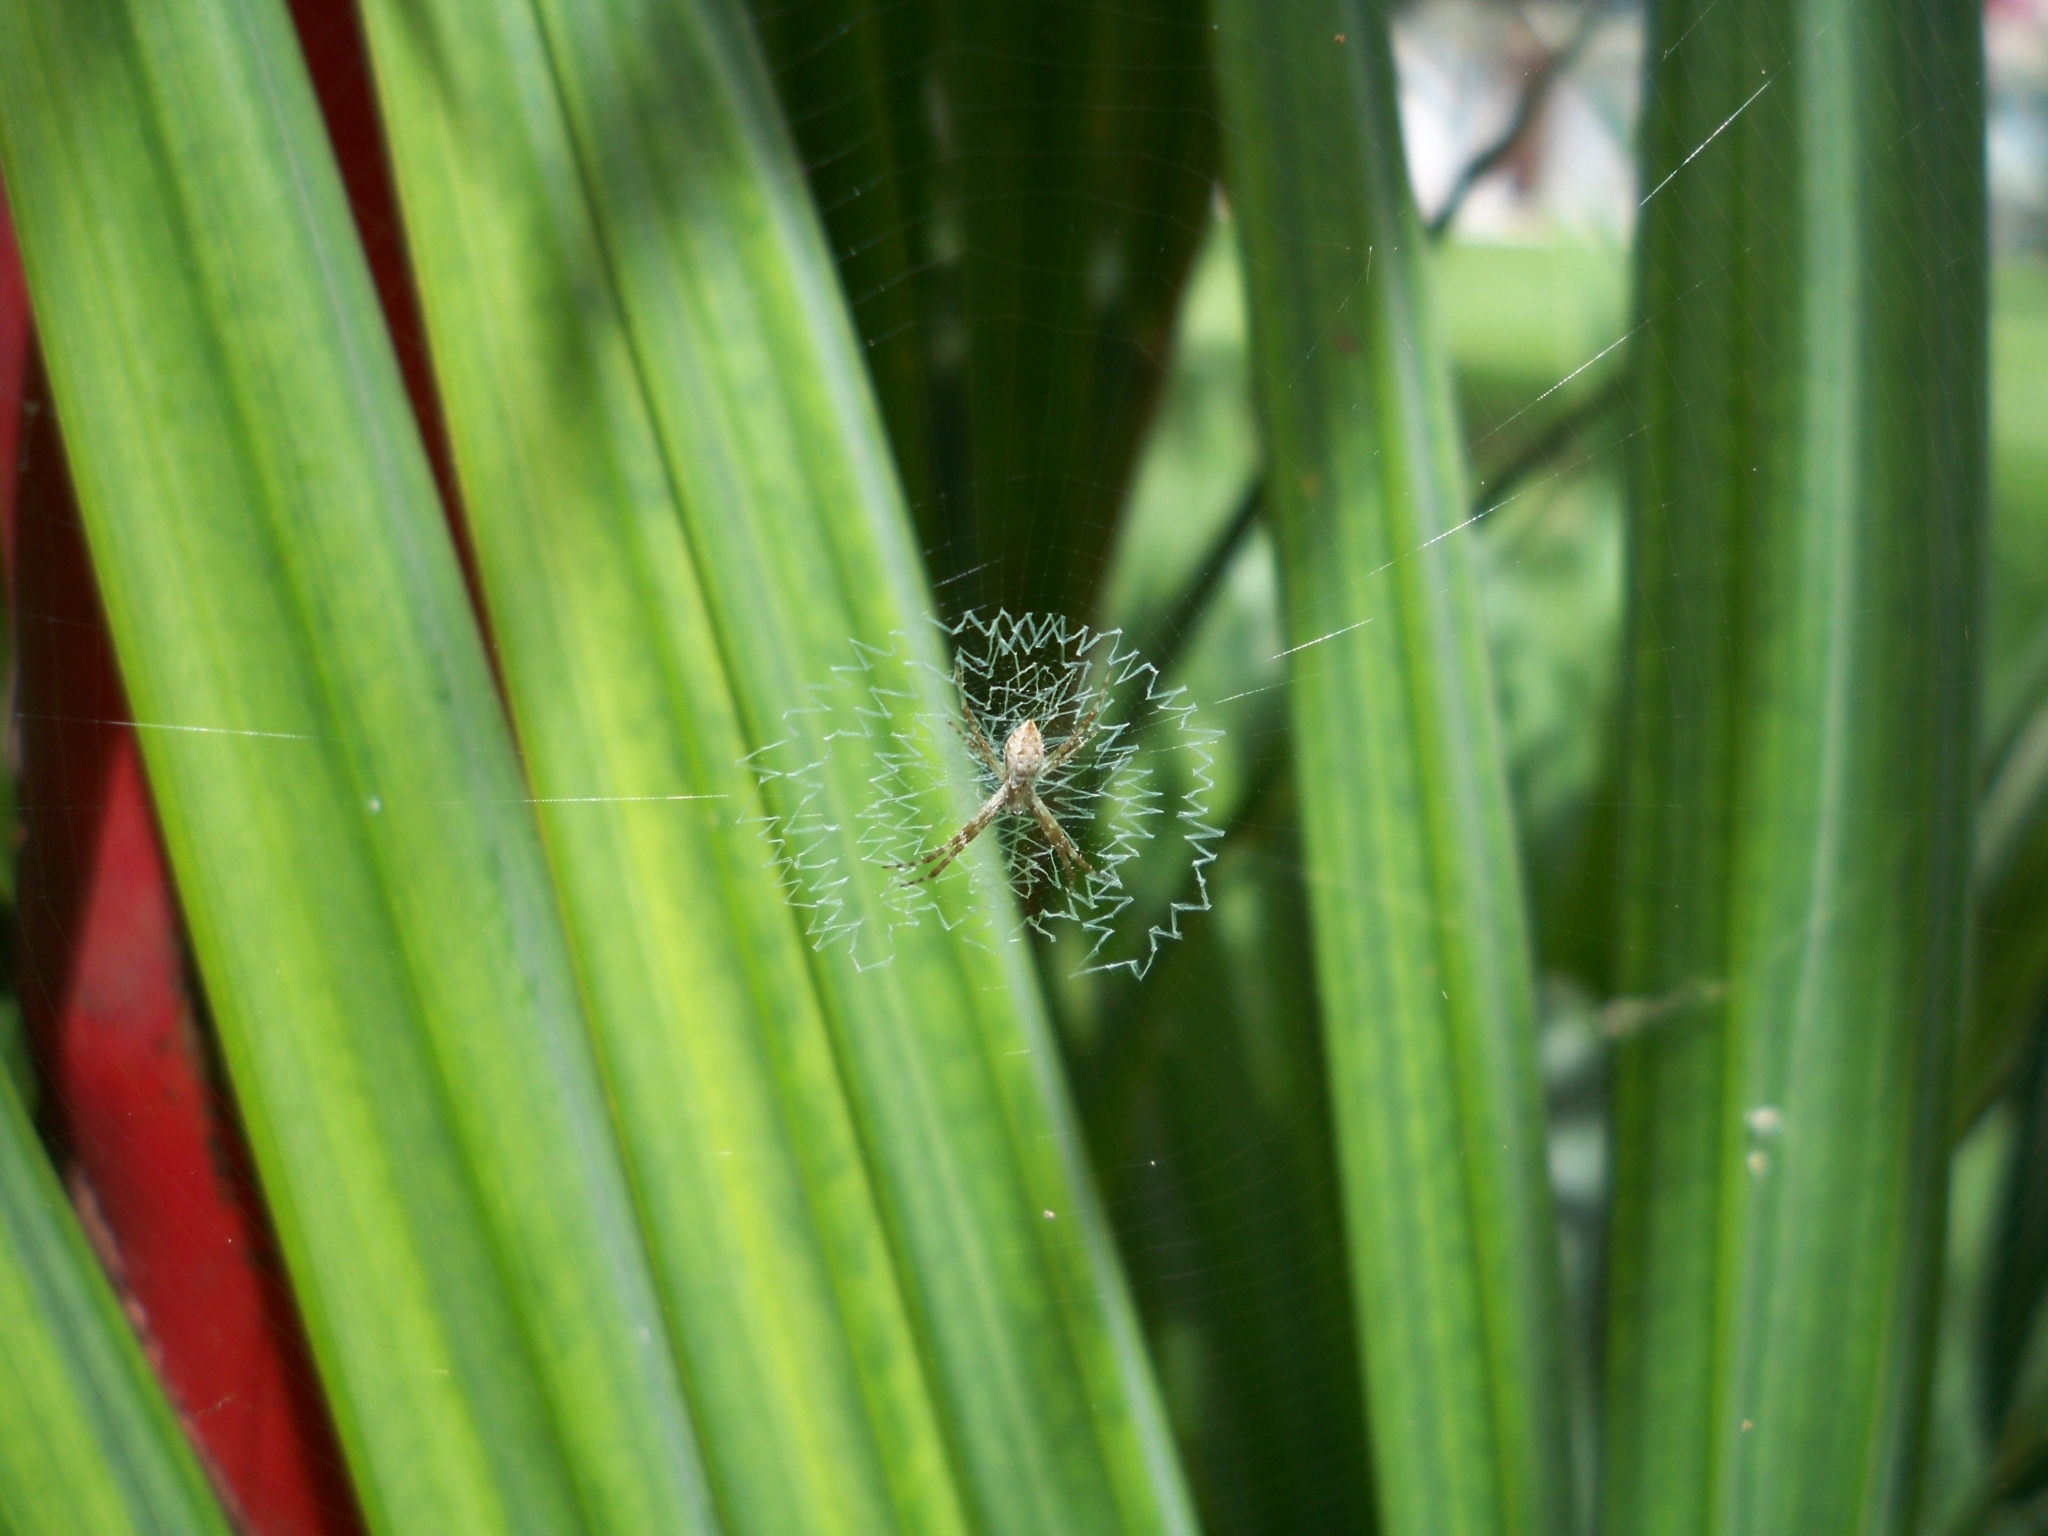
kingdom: Animalia
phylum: Arthropoda
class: Arachnida
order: Araneae
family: Araneidae
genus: Argiope
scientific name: Argiope argentata
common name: Orb weavers
